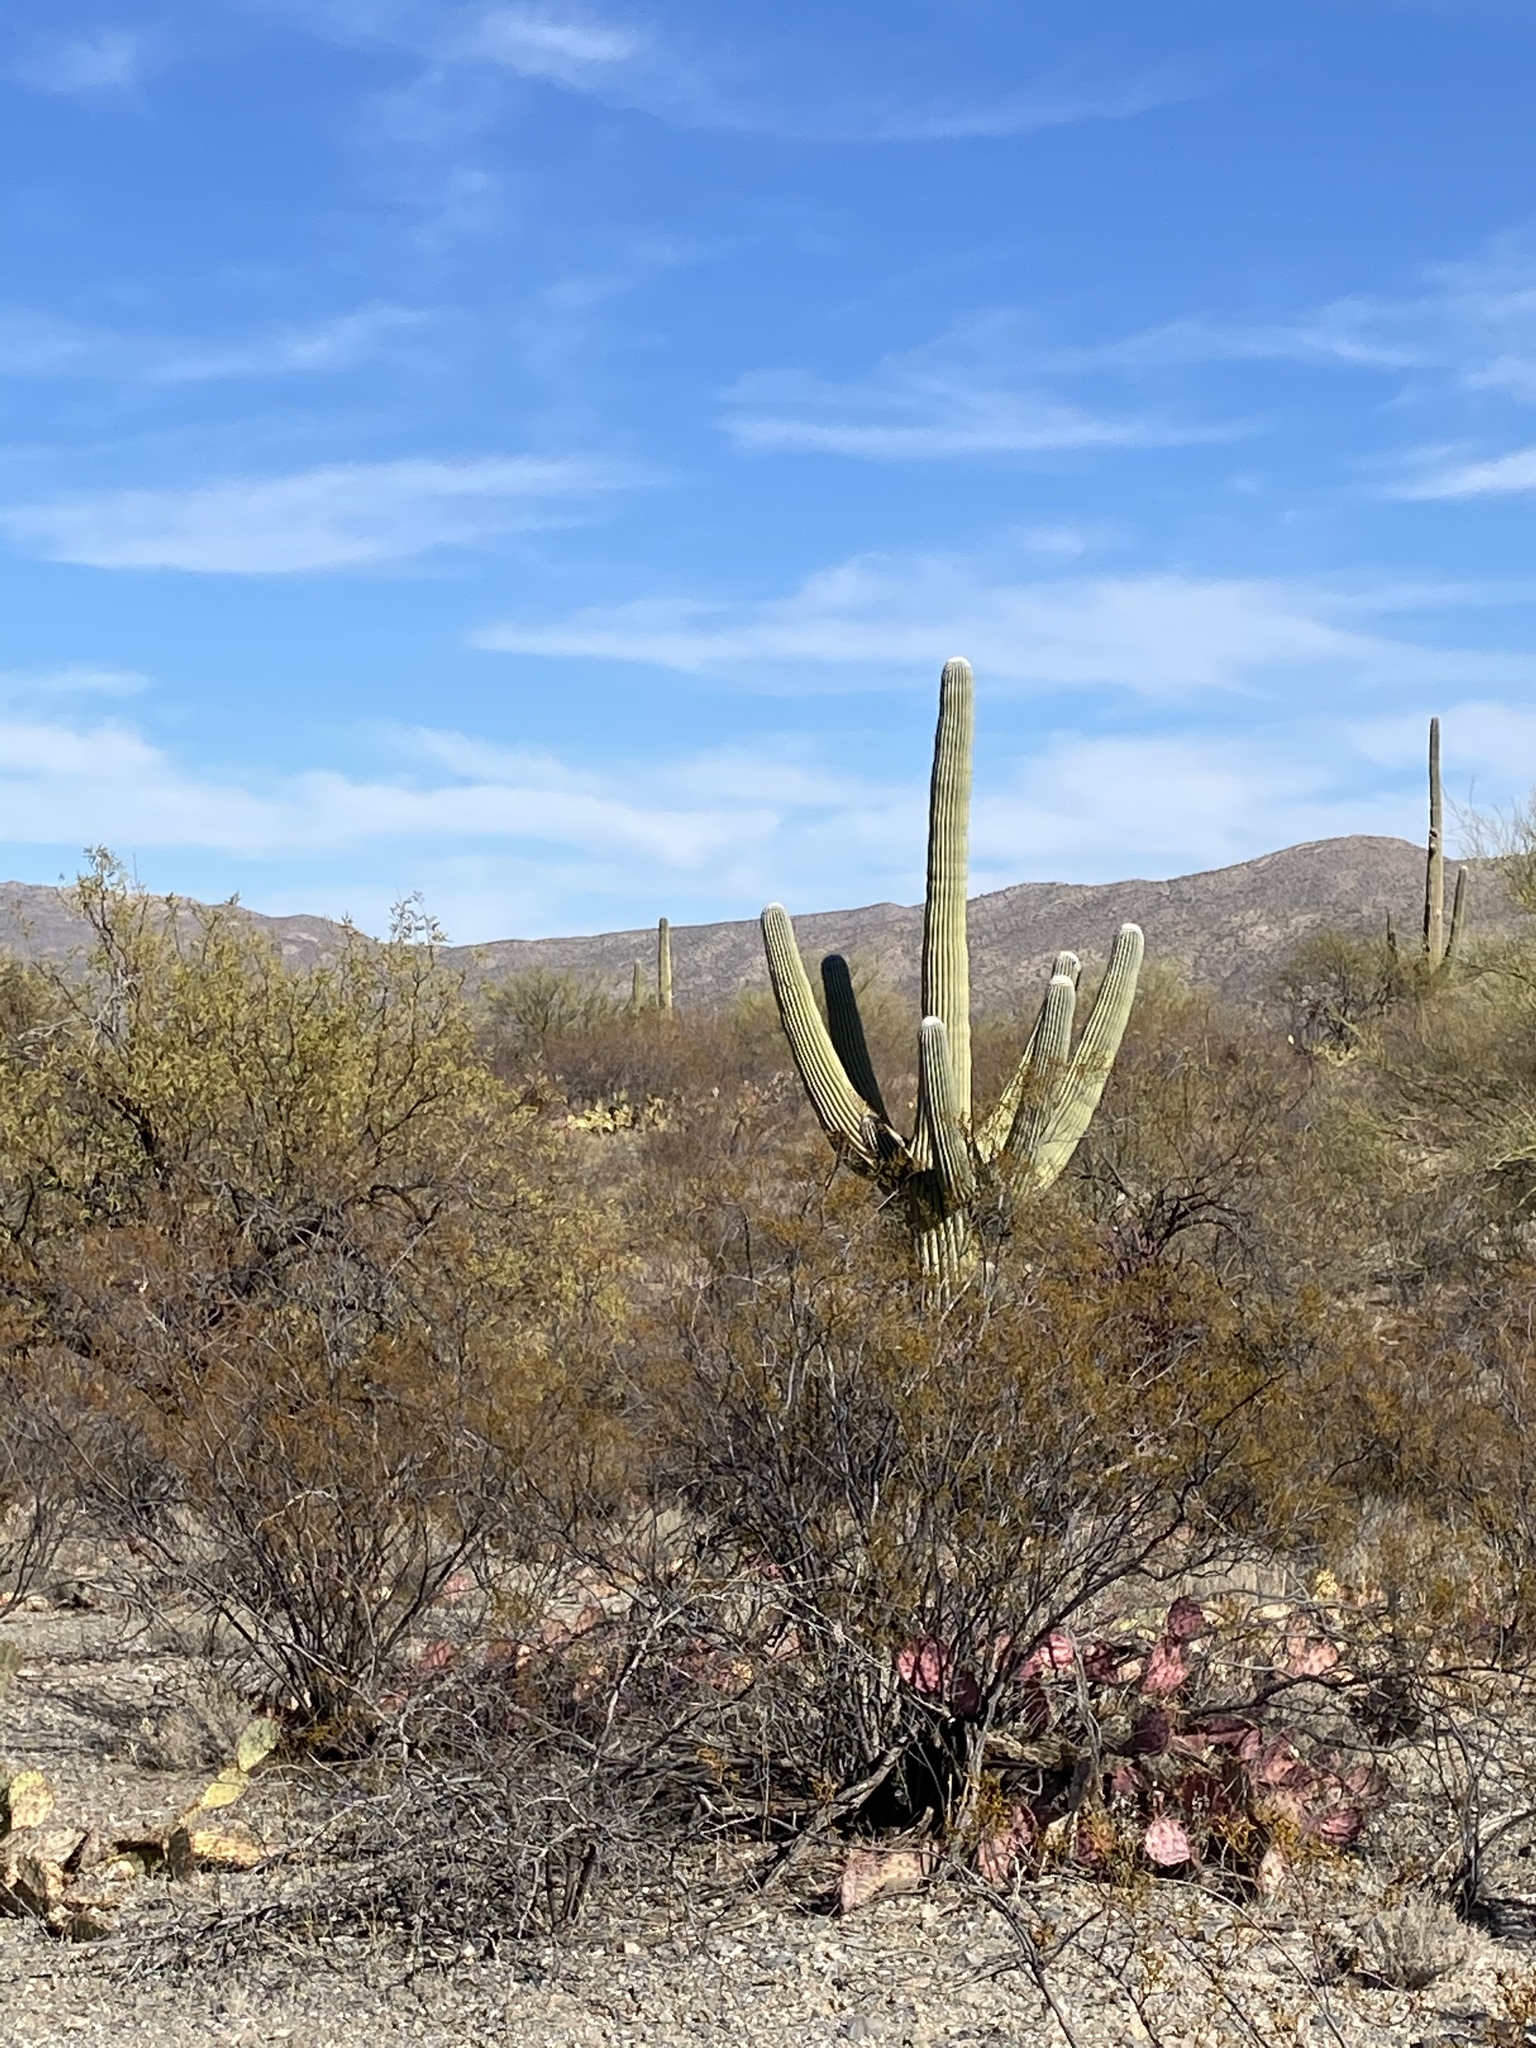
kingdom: Plantae
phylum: Tracheophyta
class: Magnoliopsida
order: Caryophyllales
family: Cactaceae
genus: Carnegiea
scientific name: Carnegiea gigantea
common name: Saguaro
